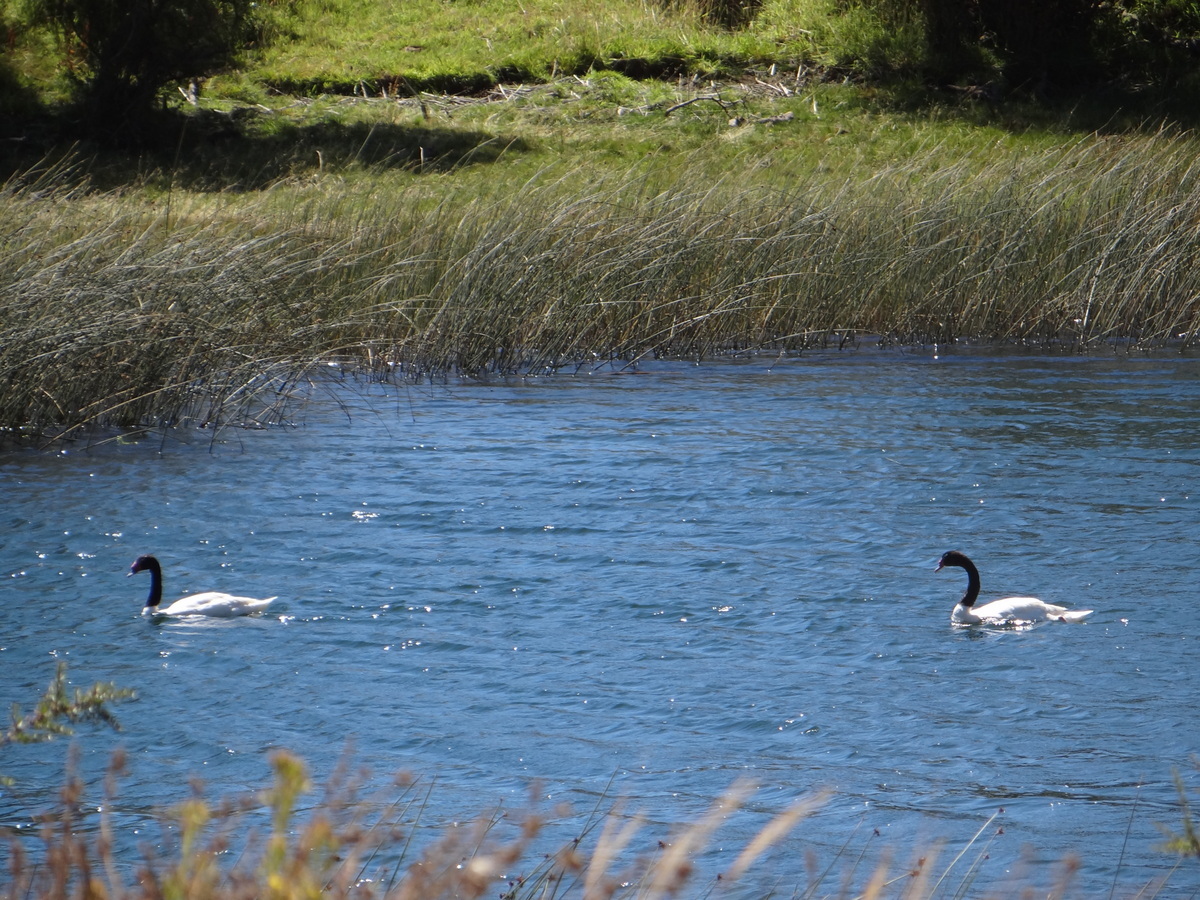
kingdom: Animalia
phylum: Chordata
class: Aves
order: Anseriformes
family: Anatidae
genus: Cygnus
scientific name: Cygnus melancoryphus
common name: Black-necked swan
